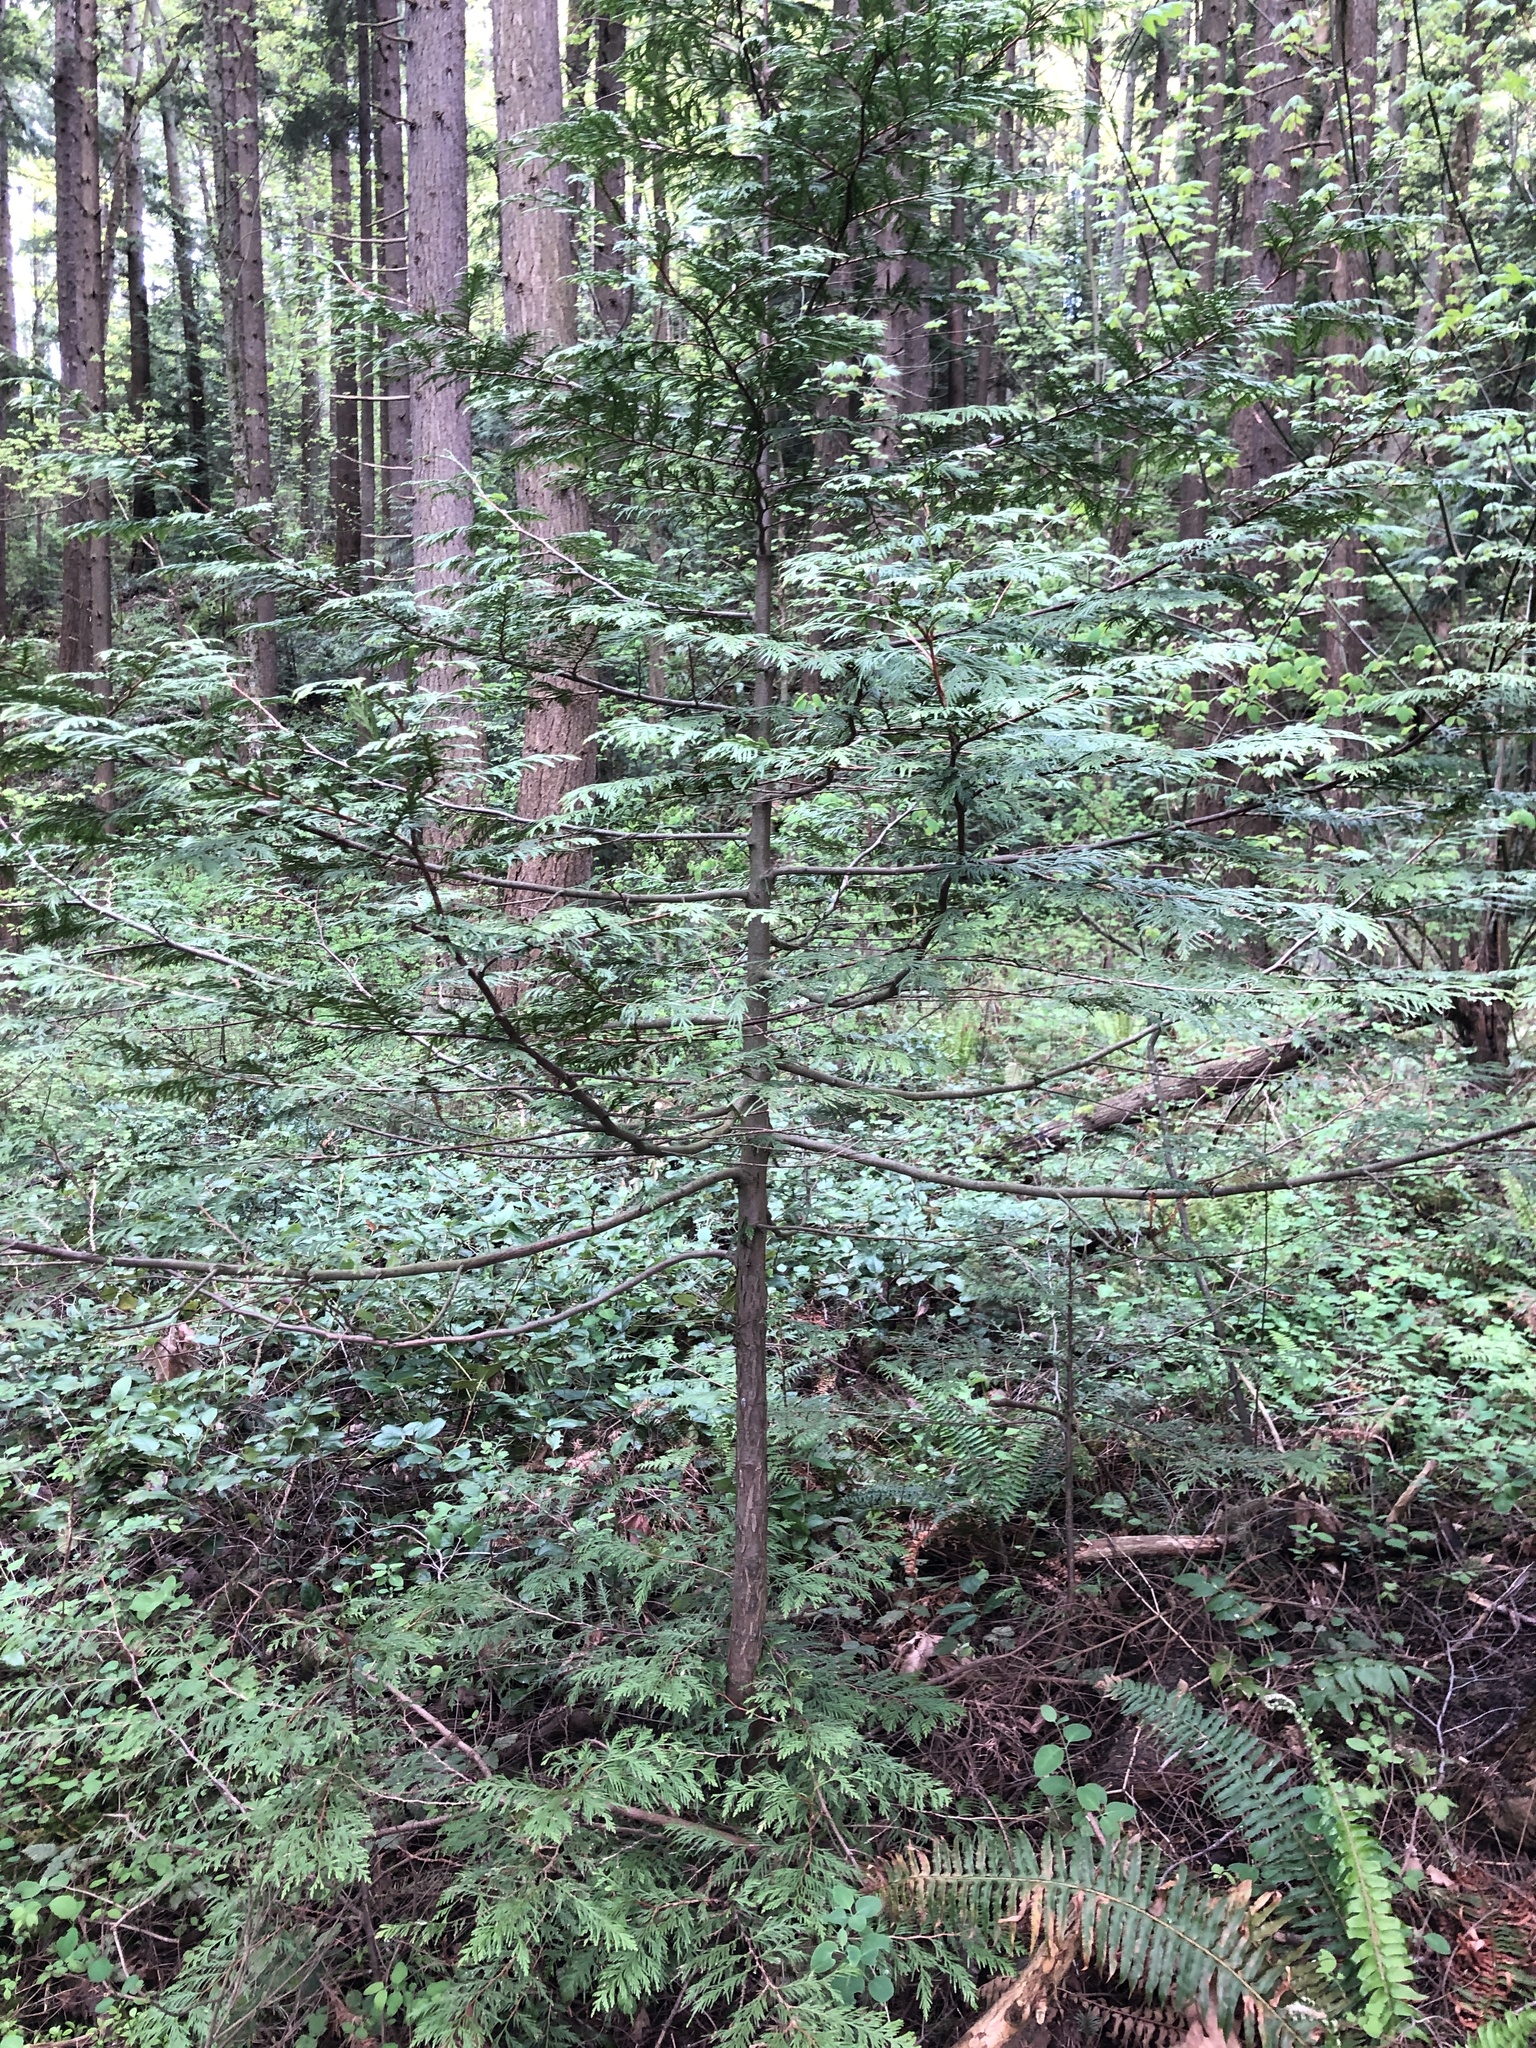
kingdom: Plantae
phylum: Tracheophyta
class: Pinopsida
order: Pinales
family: Cupressaceae
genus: Thuja
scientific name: Thuja plicata
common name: Western red-cedar
